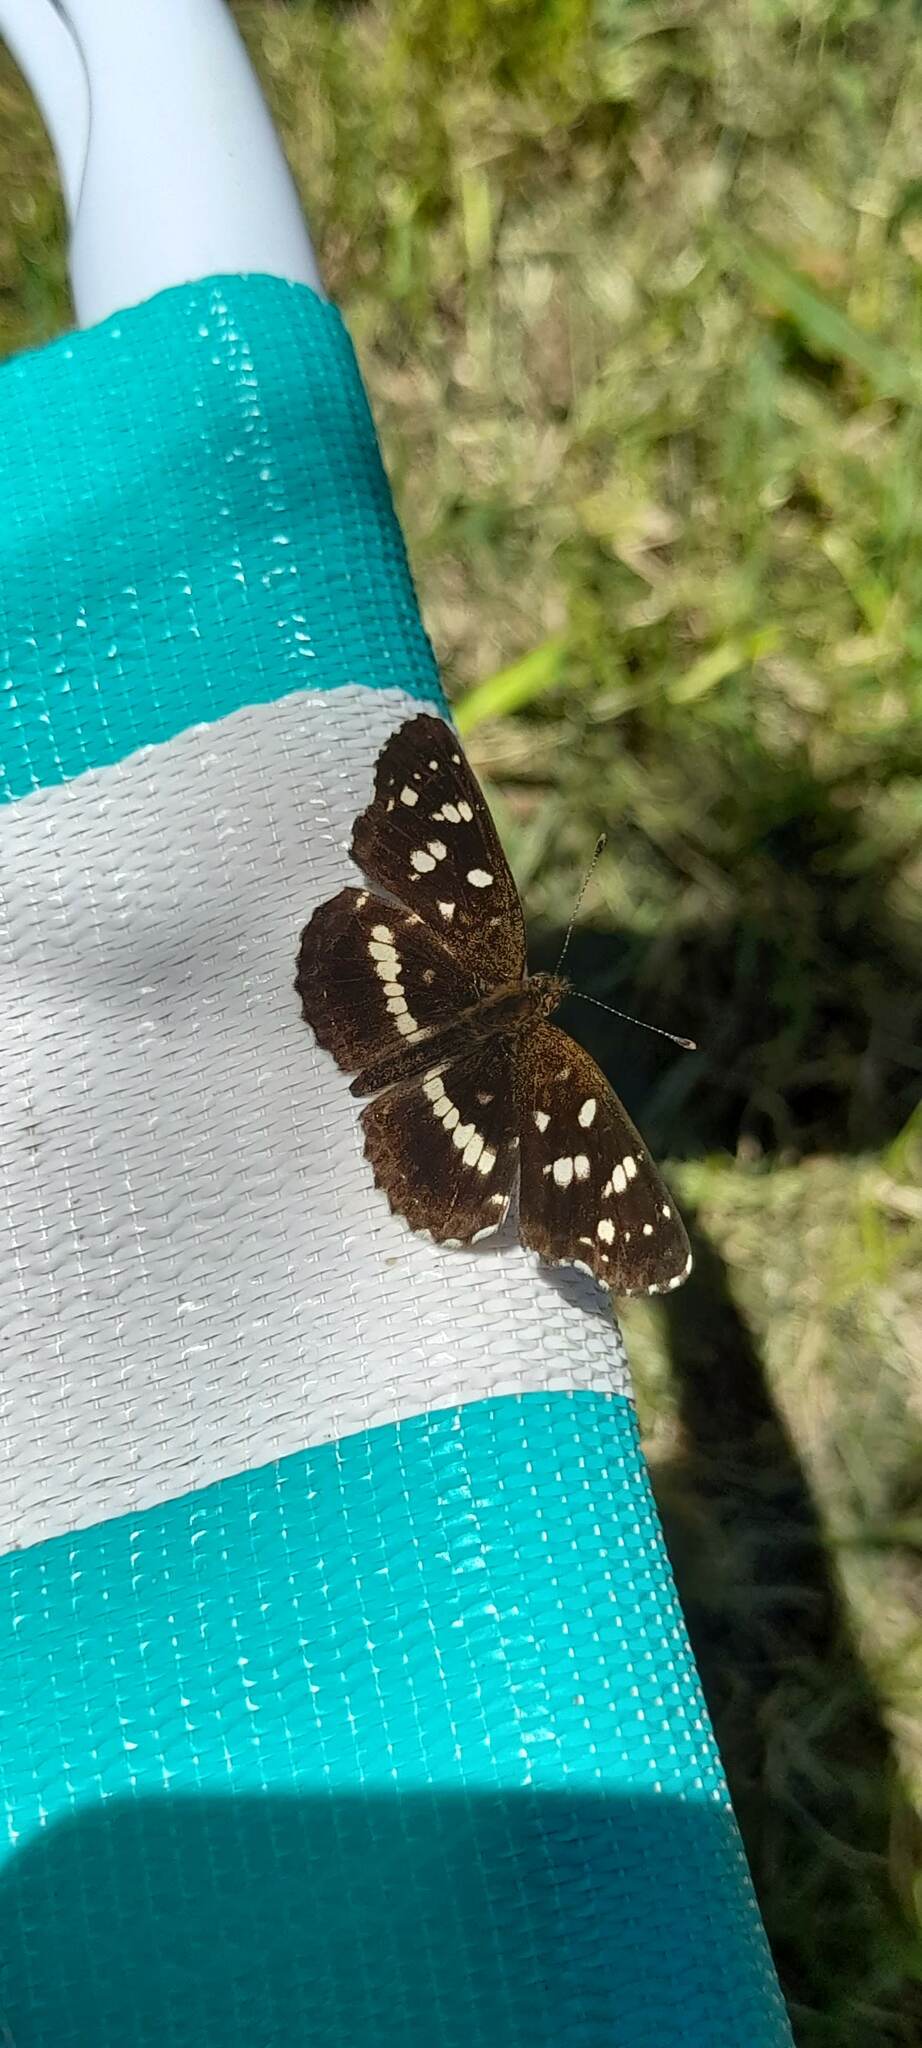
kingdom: Animalia
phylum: Arthropoda
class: Insecta
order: Lepidoptera
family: Nymphalidae
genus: Ortilia
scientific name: Ortilia ithra
